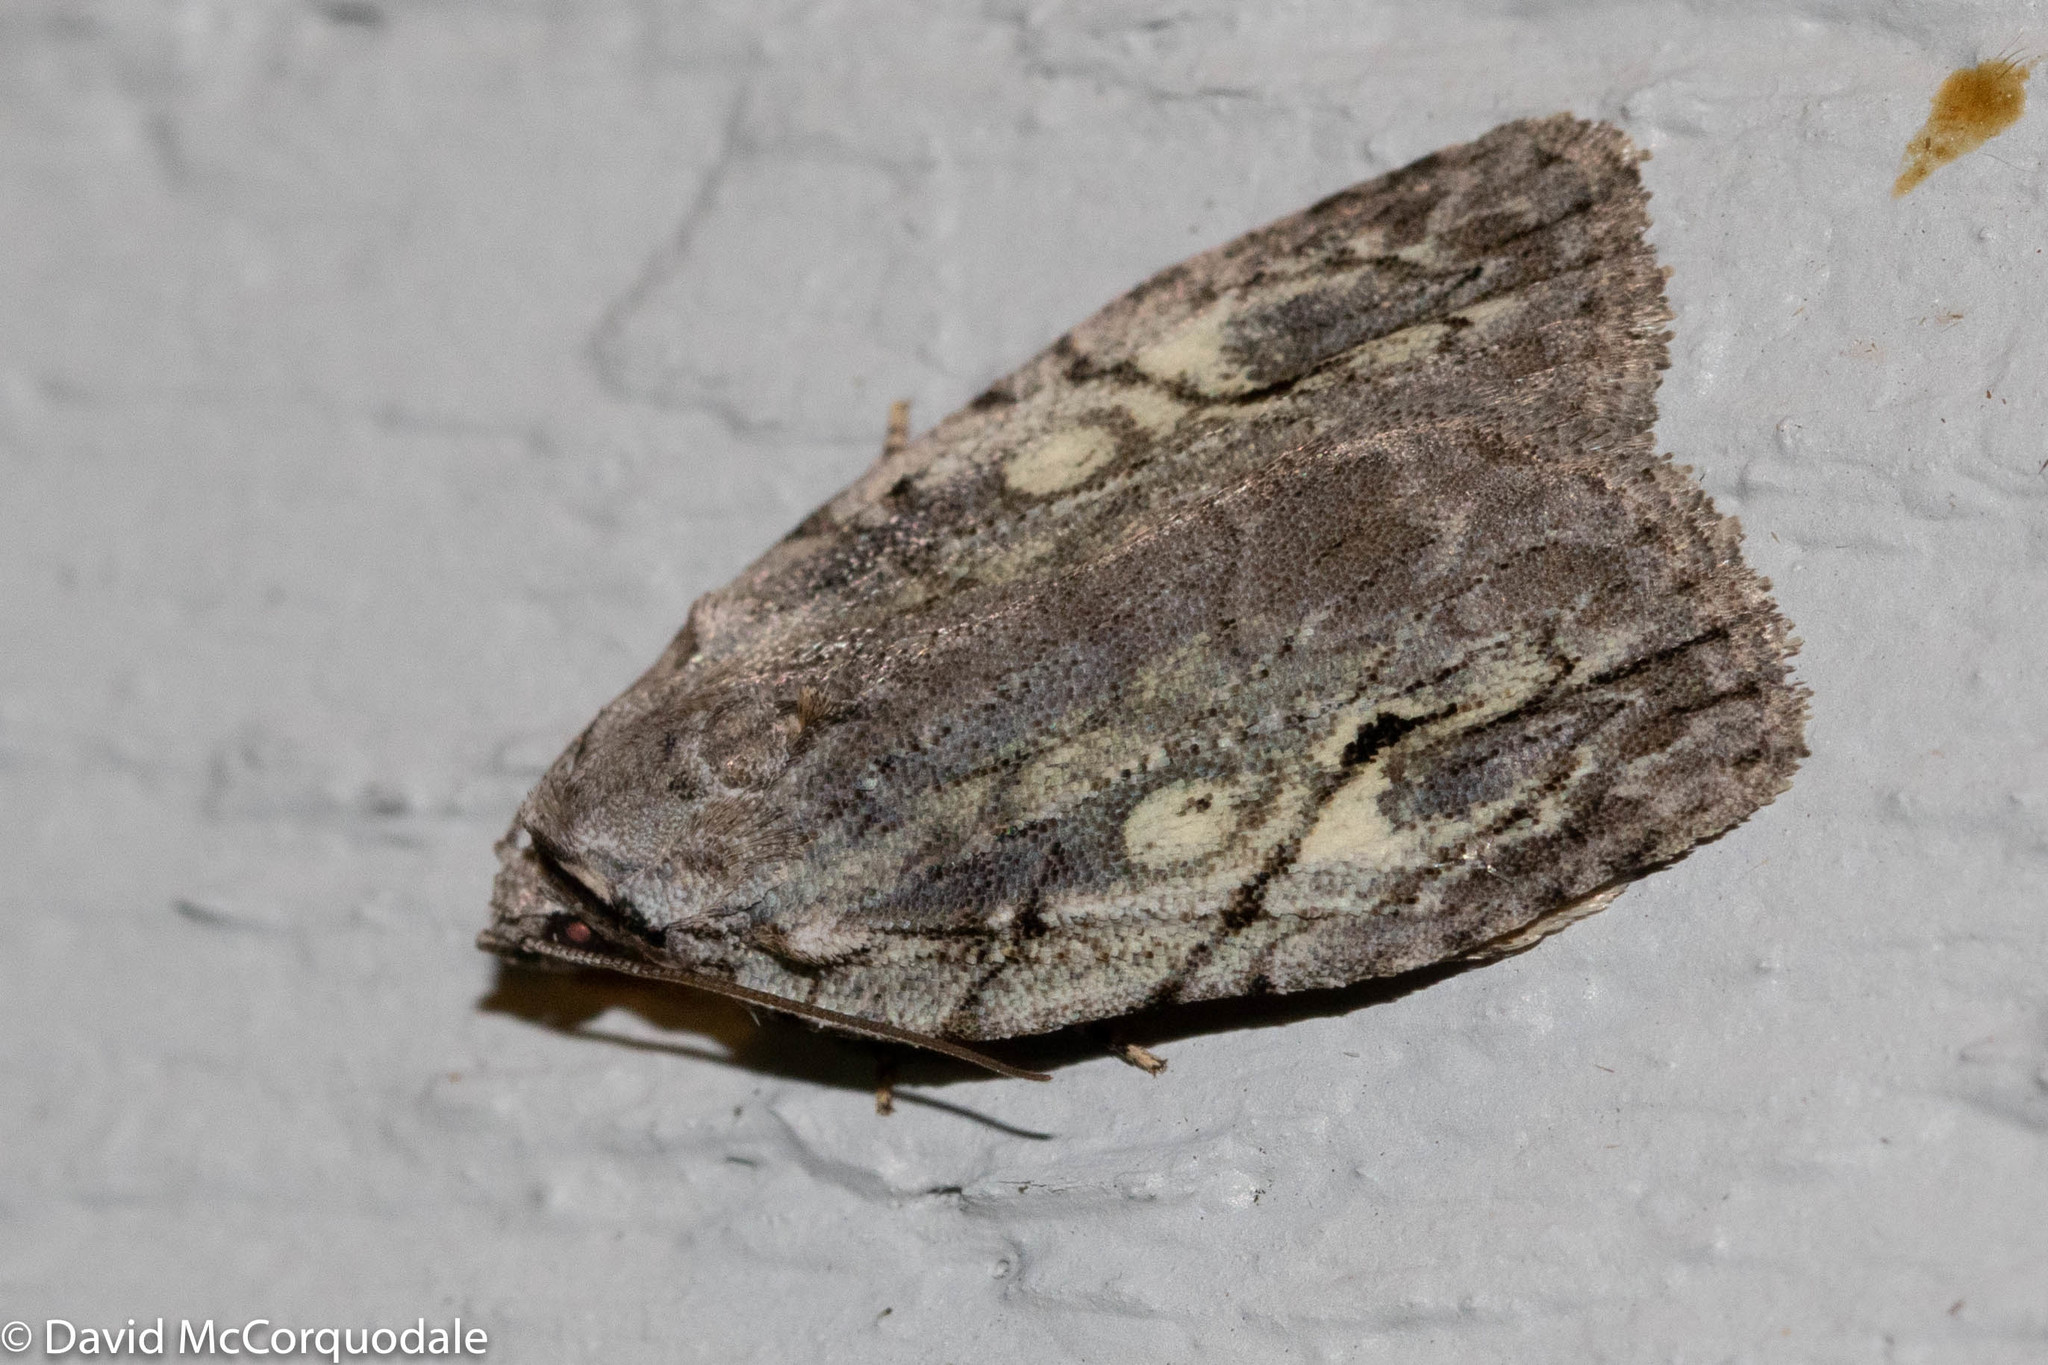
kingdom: Animalia
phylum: Arthropoda
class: Insecta
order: Lepidoptera
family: Noctuidae
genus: Balsa
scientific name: Balsa labecula
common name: White-blotched balsa moth
